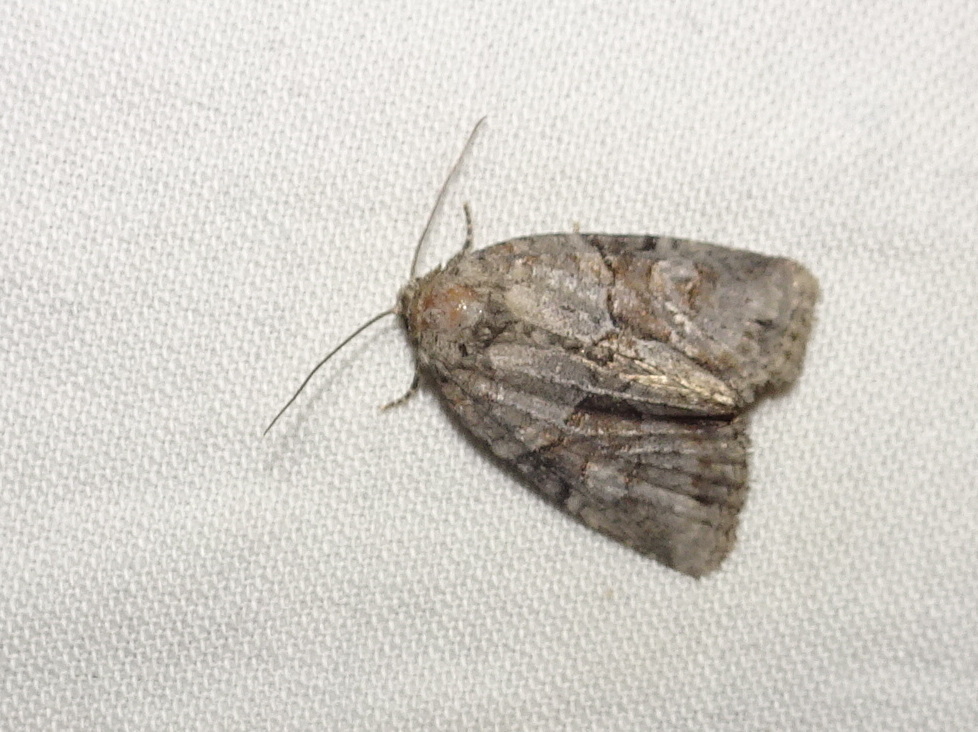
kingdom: Animalia
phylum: Arthropoda
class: Insecta
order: Lepidoptera
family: Noctuidae
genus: Neoligia
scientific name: Neoligia exhausta
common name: Exhausted brocade
